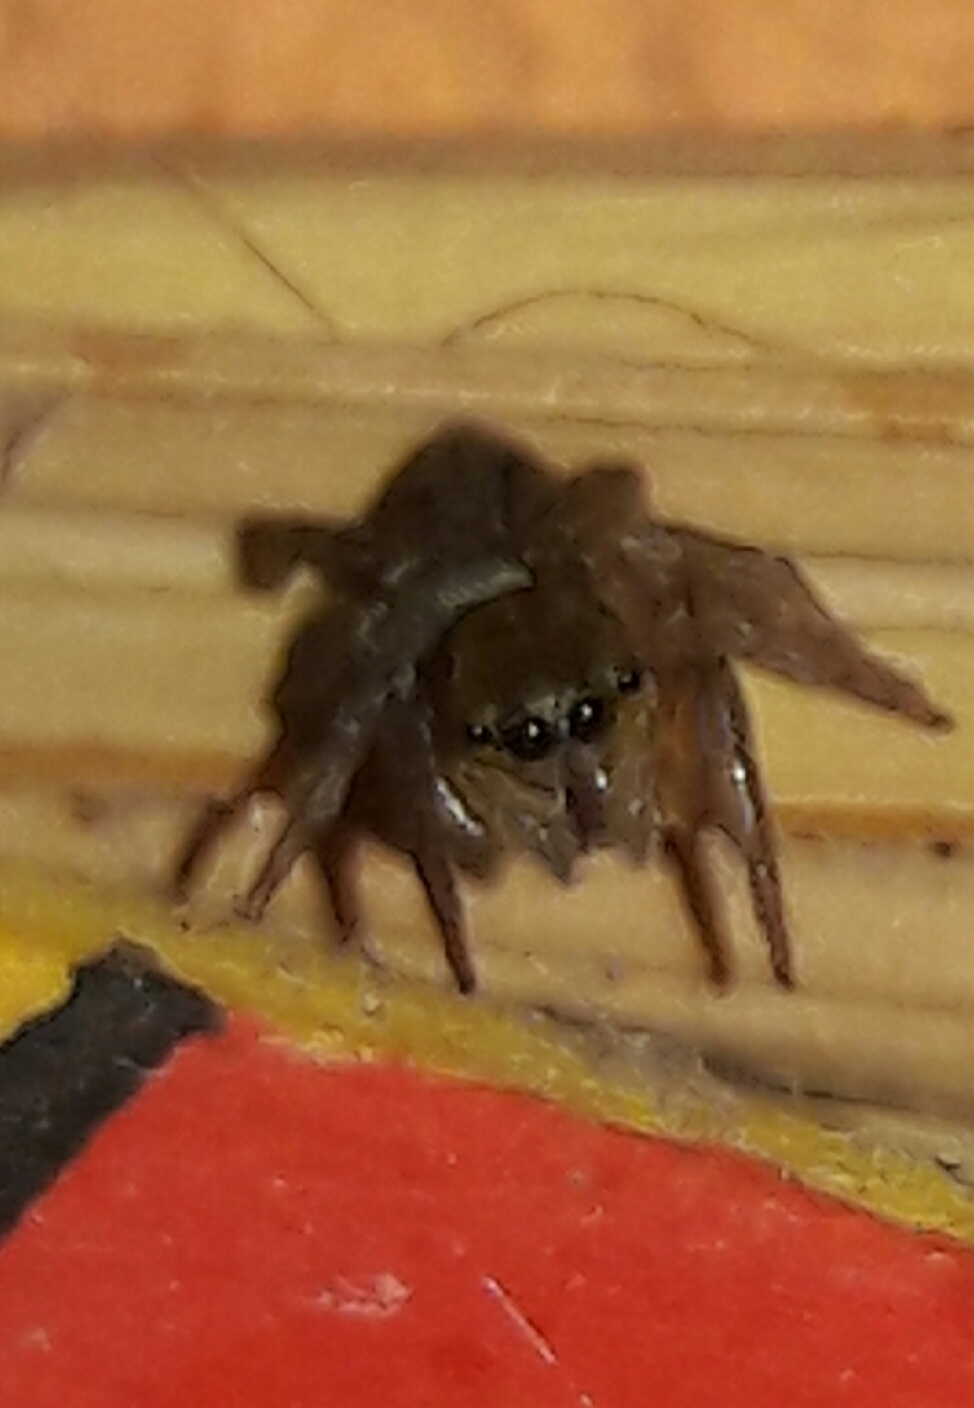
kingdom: Animalia
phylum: Arthropoda
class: Arachnida
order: Araneae
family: Salticidae
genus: Hasarius
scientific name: Hasarius adansoni
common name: Jumping spider
